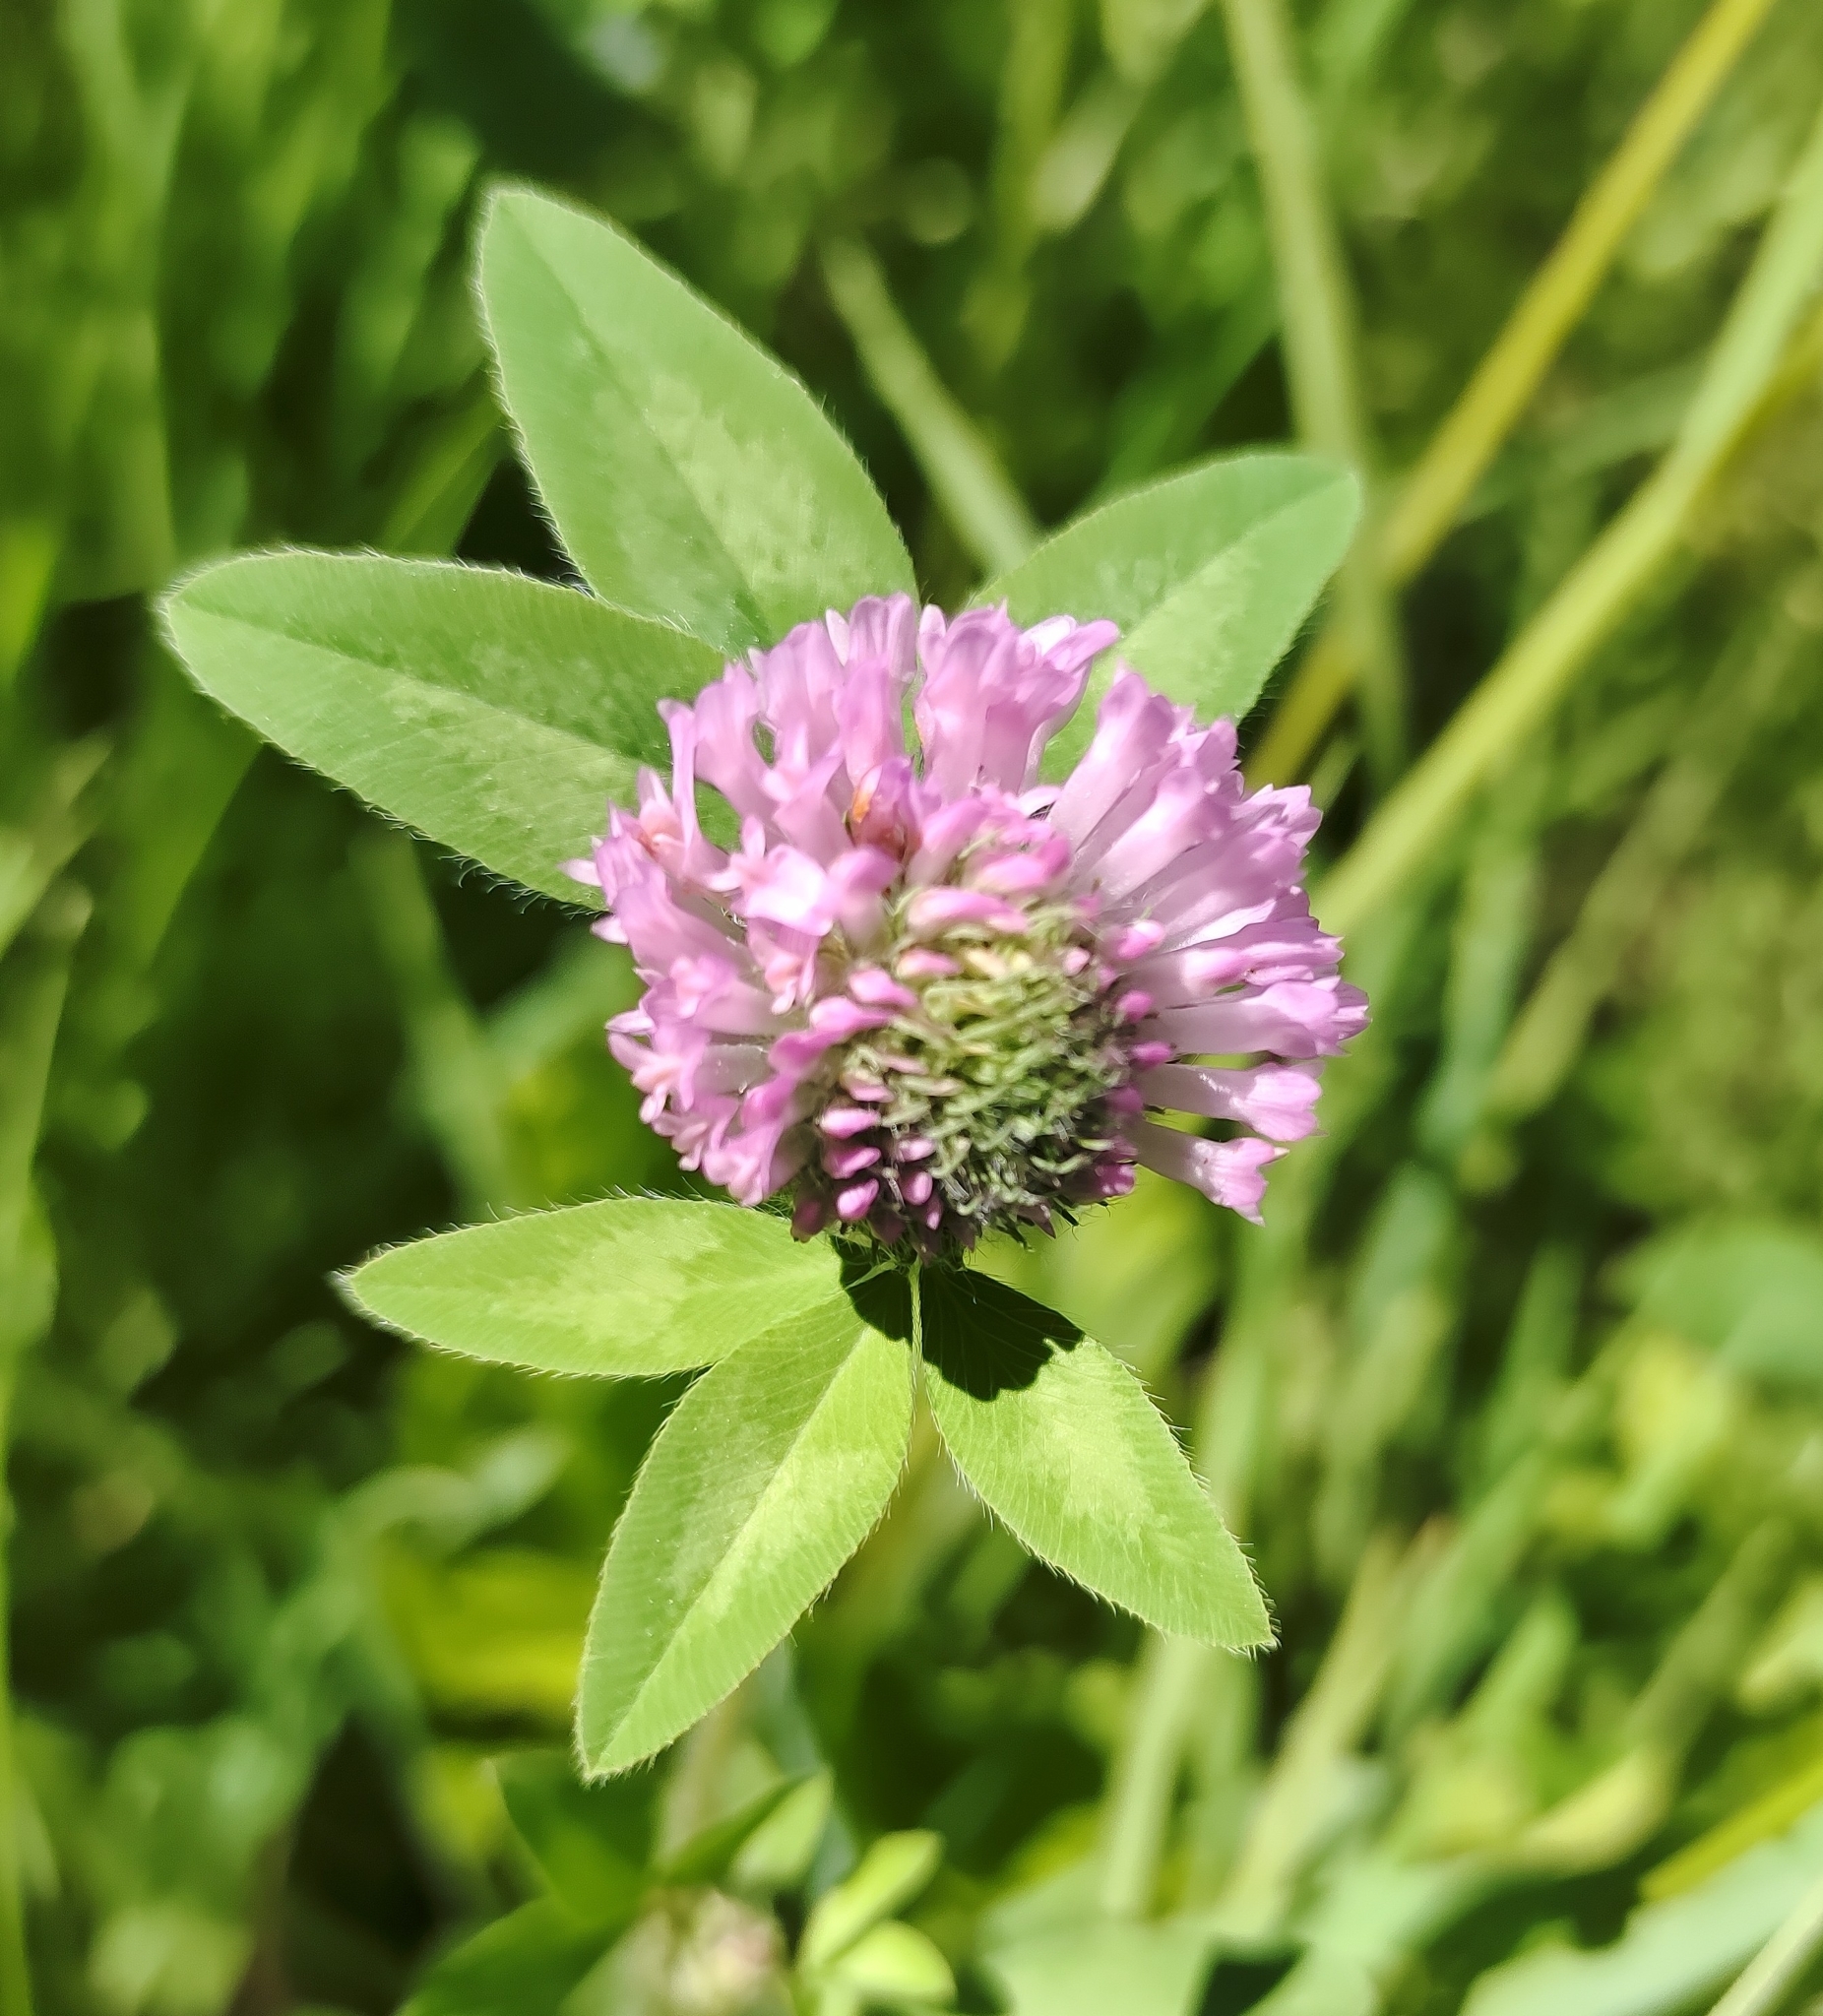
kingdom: Plantae
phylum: Tracheophyta
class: Magnoliopsida
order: Fabales
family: Fabaceae
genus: Trifolium
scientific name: Trifolium pratense
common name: Red clover
